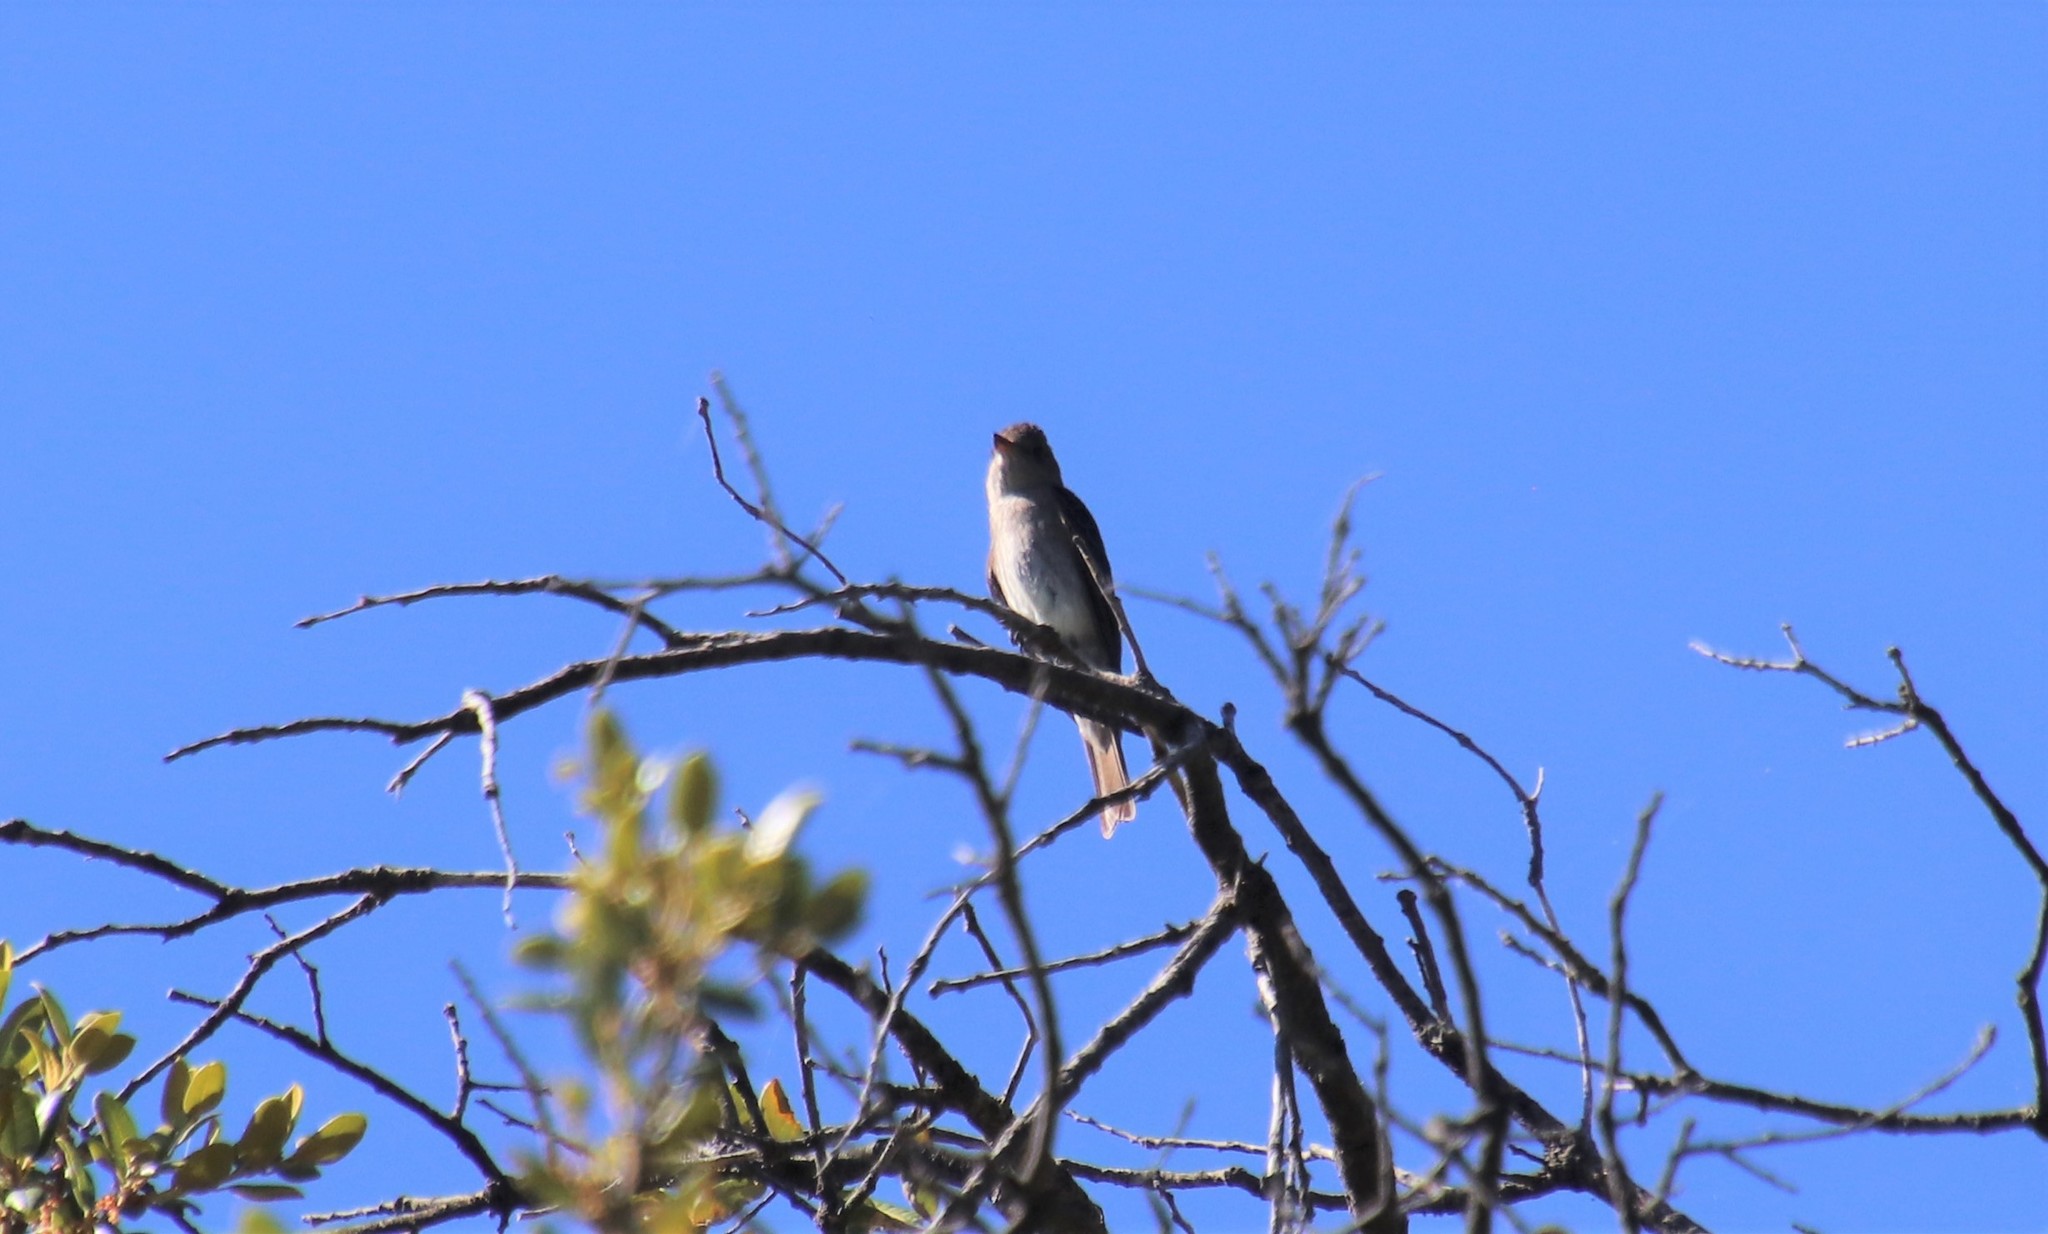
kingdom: Animalia
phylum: Chordata
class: Aves
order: Passeriformes
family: Tyrannidae
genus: Contopus
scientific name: Contopus sordidulus
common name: Western wood-pewee
